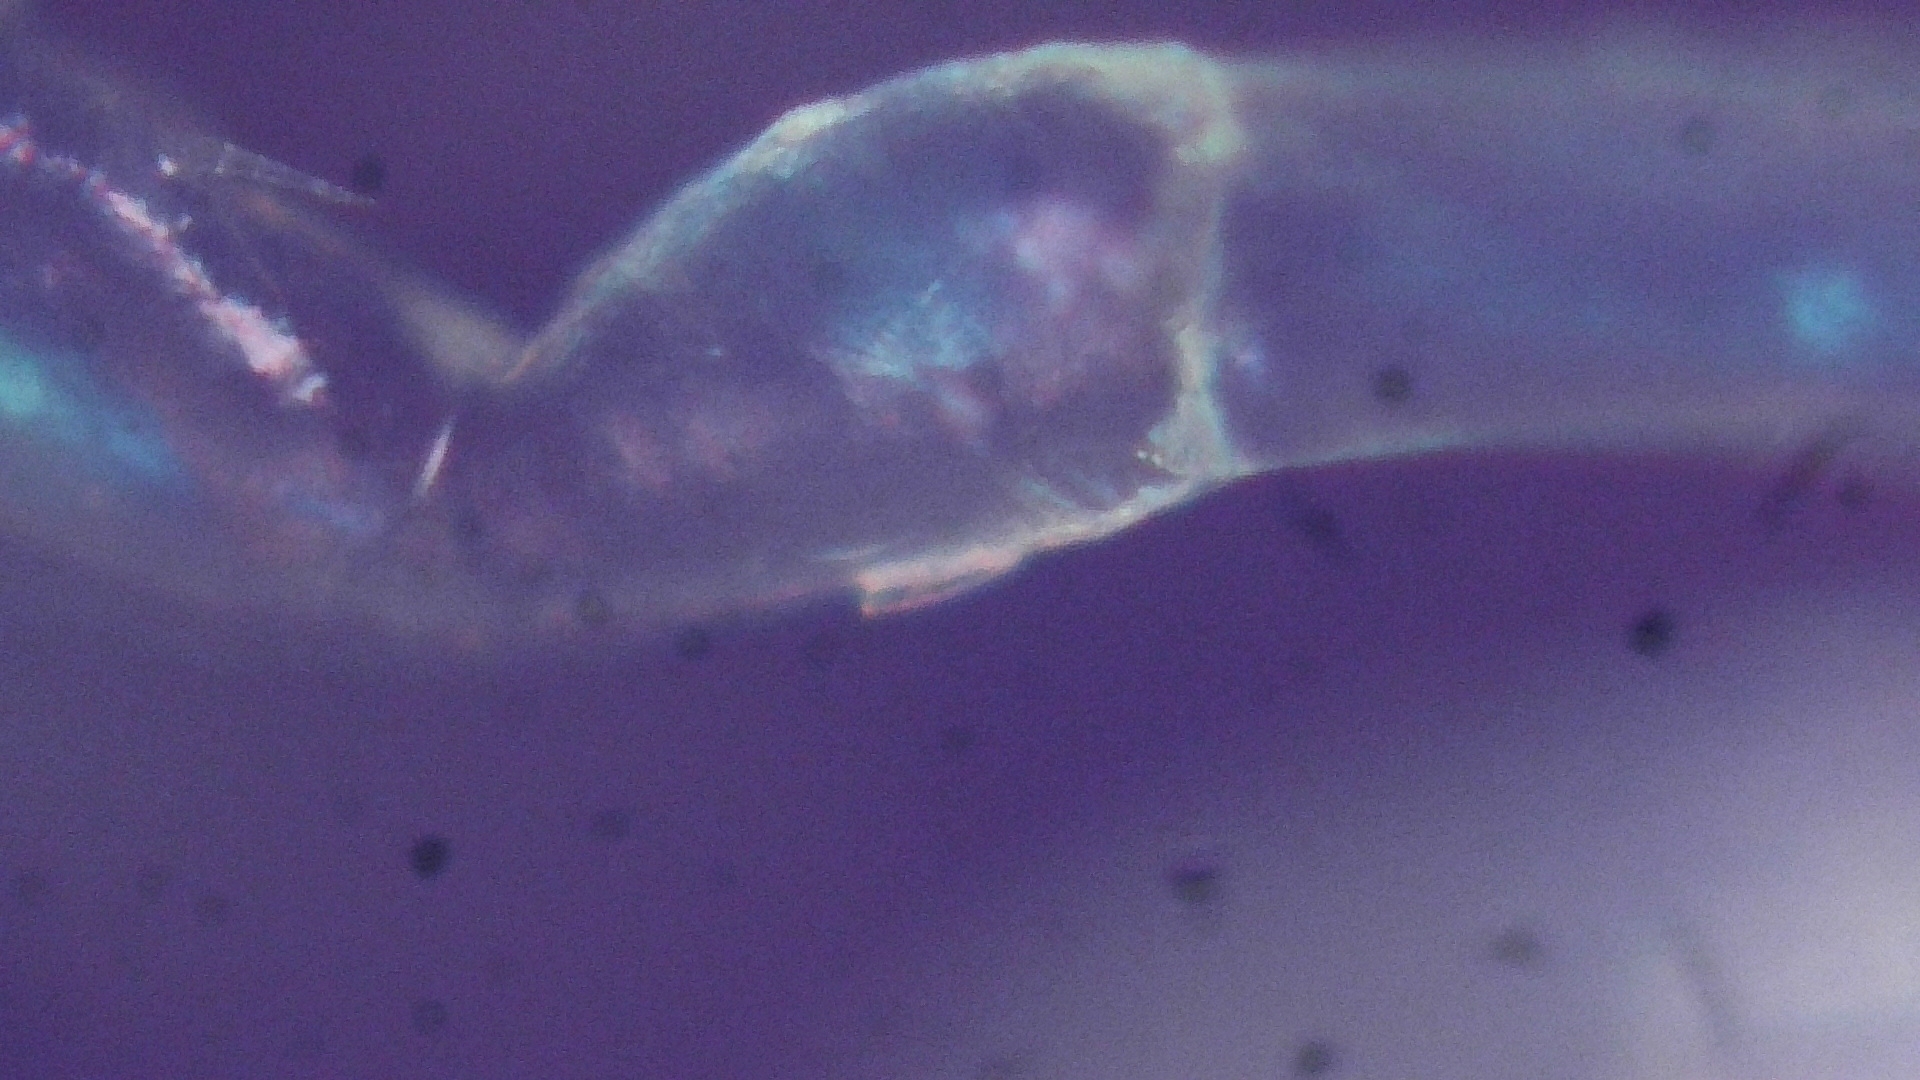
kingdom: Animalia
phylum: Arthropoda
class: Malacostraca
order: Isopoda
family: Janiridae
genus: Jaera
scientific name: Jaera
